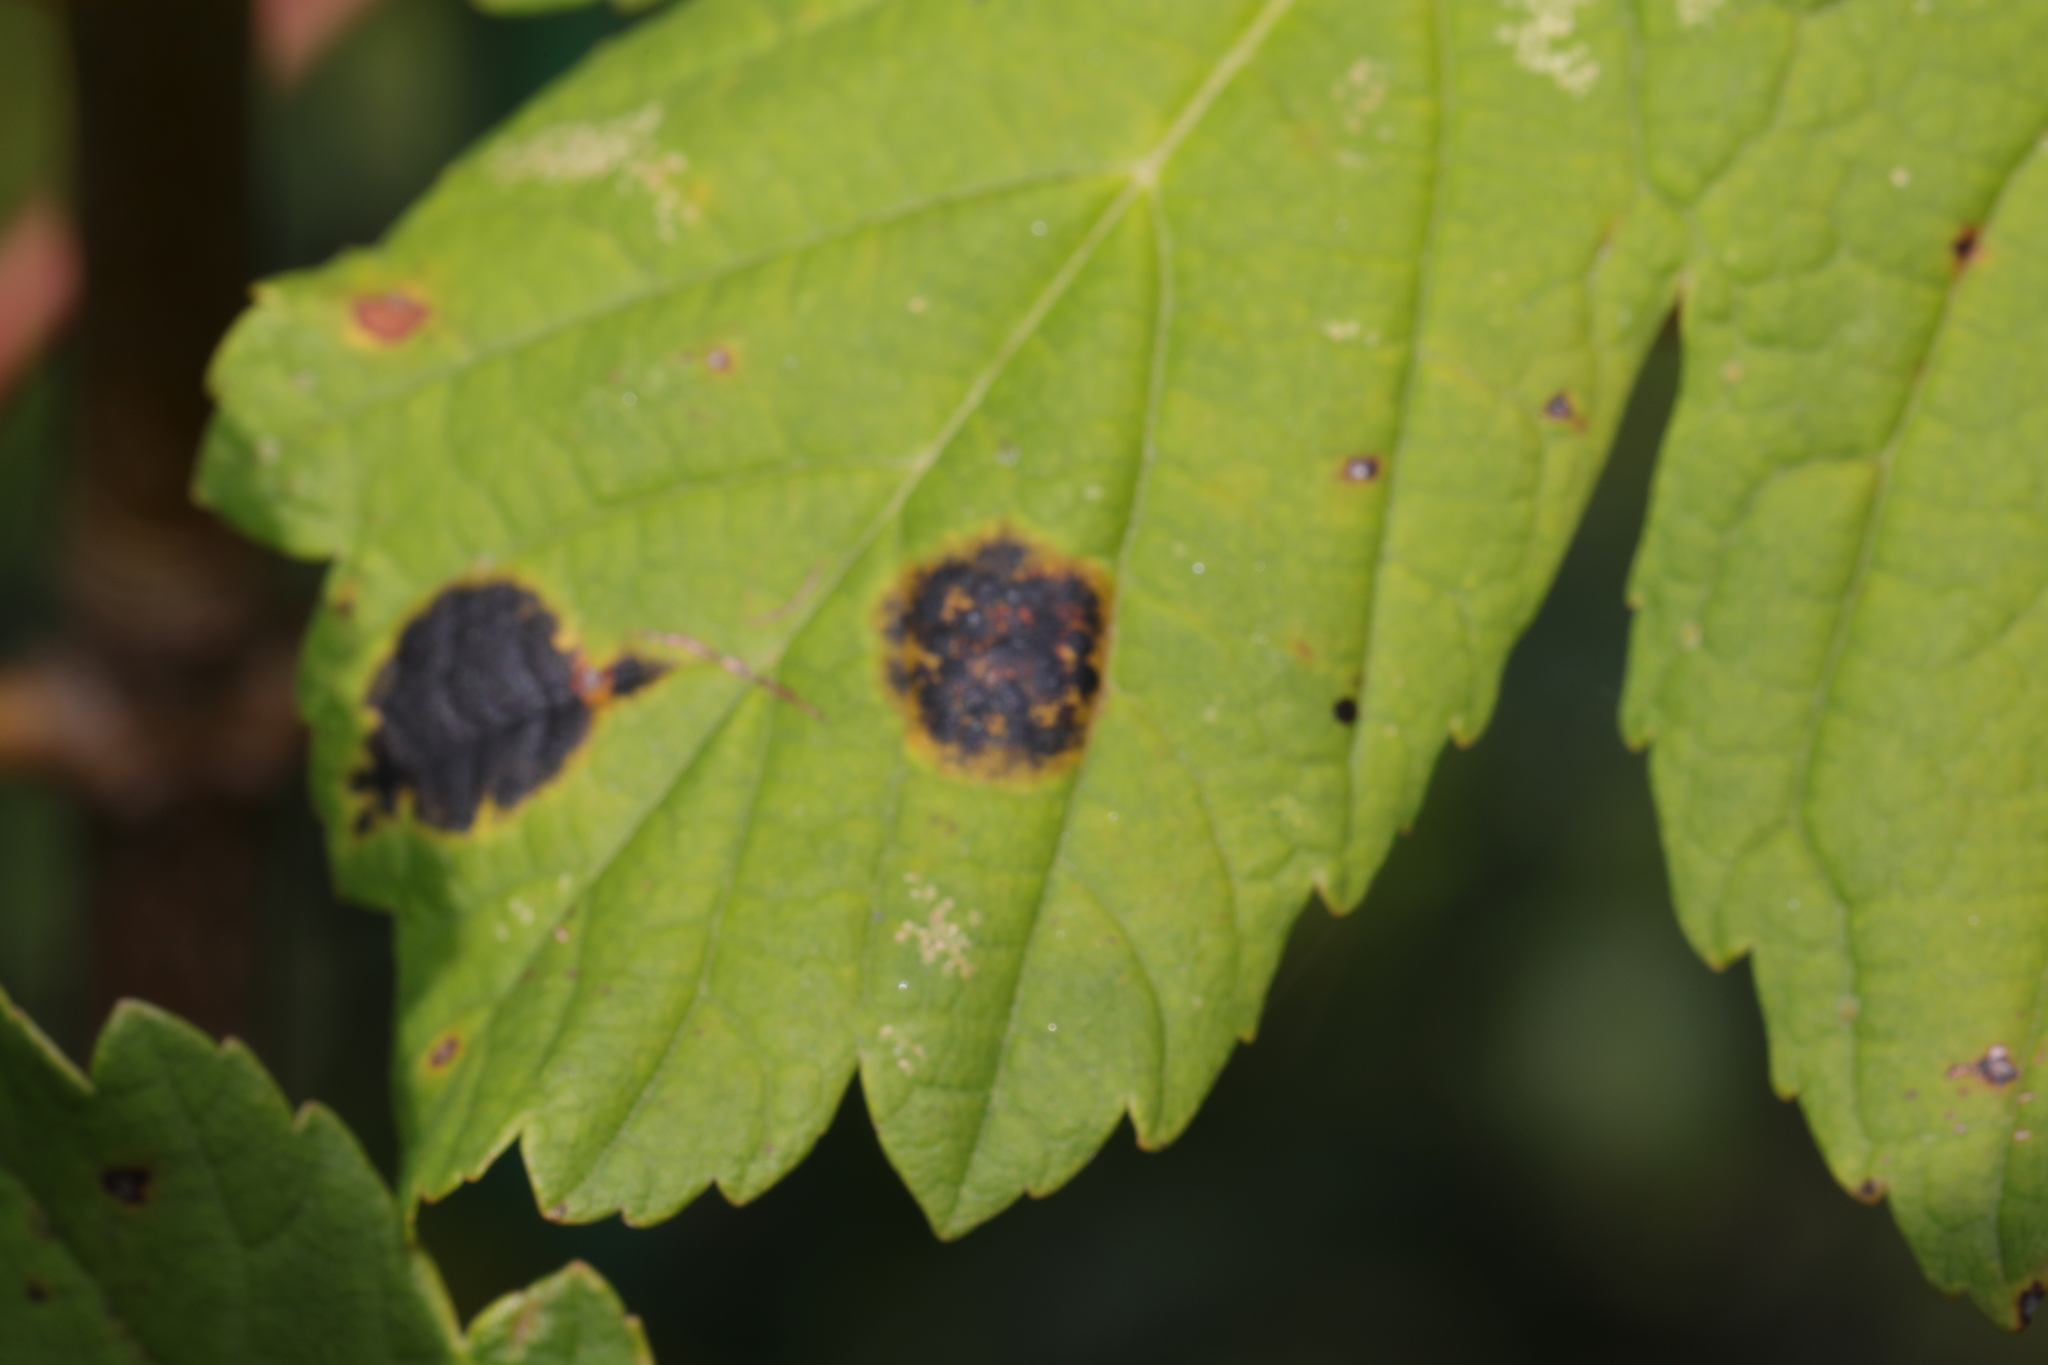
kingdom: Fungi
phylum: Ascomycota
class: Leotiomycetes
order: Rhytismatales
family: Rhytismataceae
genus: Rhytisma
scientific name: Rhytisma acerinum
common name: European tar spot
